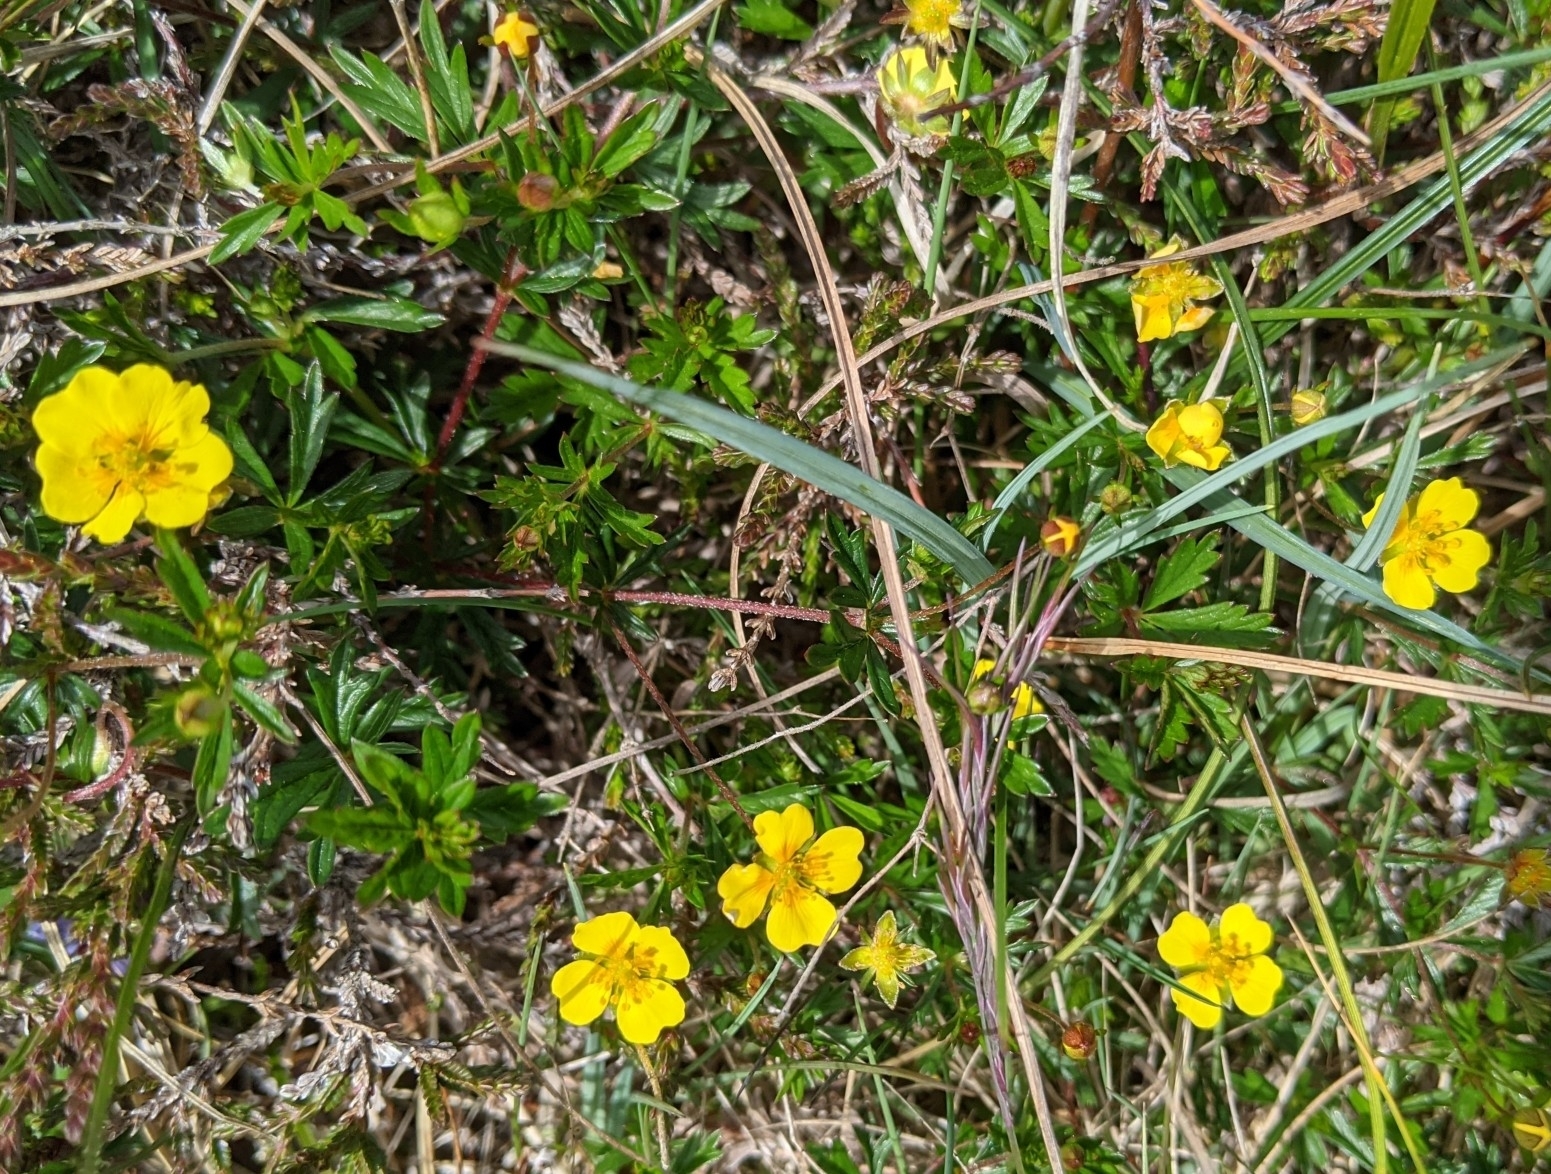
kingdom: Plantae
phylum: Tracheophyta
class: Magnoliopsida
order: Rosales
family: Rosaceae
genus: Potentilla
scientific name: Potentilla erecta
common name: Tormentil
